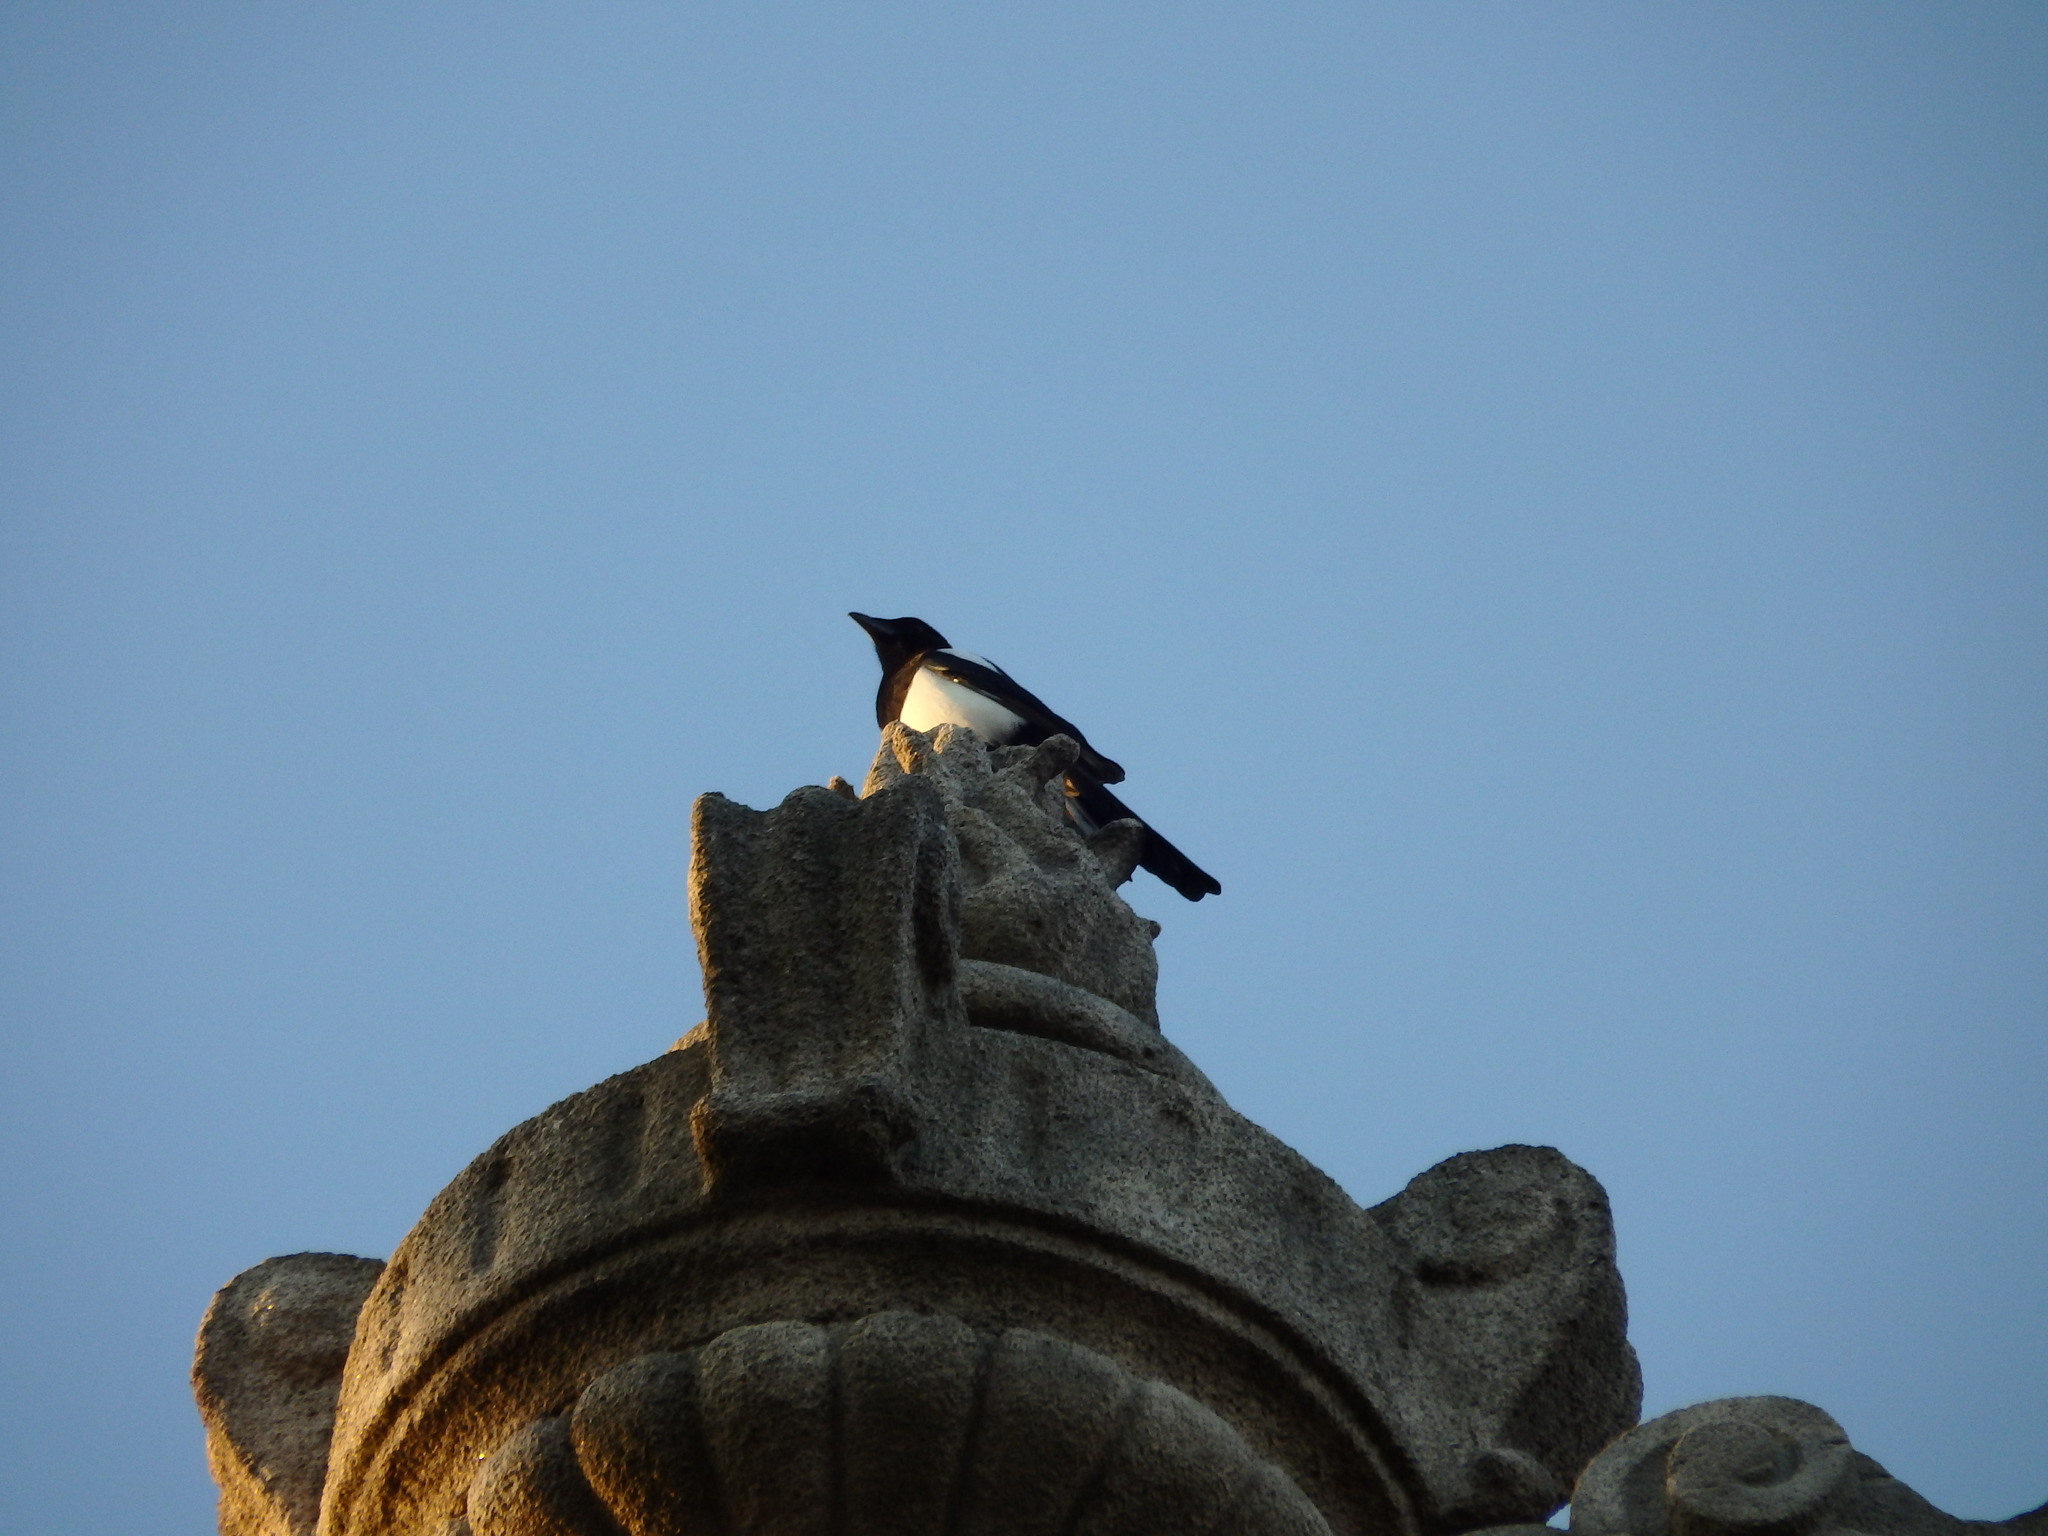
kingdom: Animalia
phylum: Chordata
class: Aves
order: Passeriformes
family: Corvidae
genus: Pica
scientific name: Pica pica
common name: Eurasian magpie
